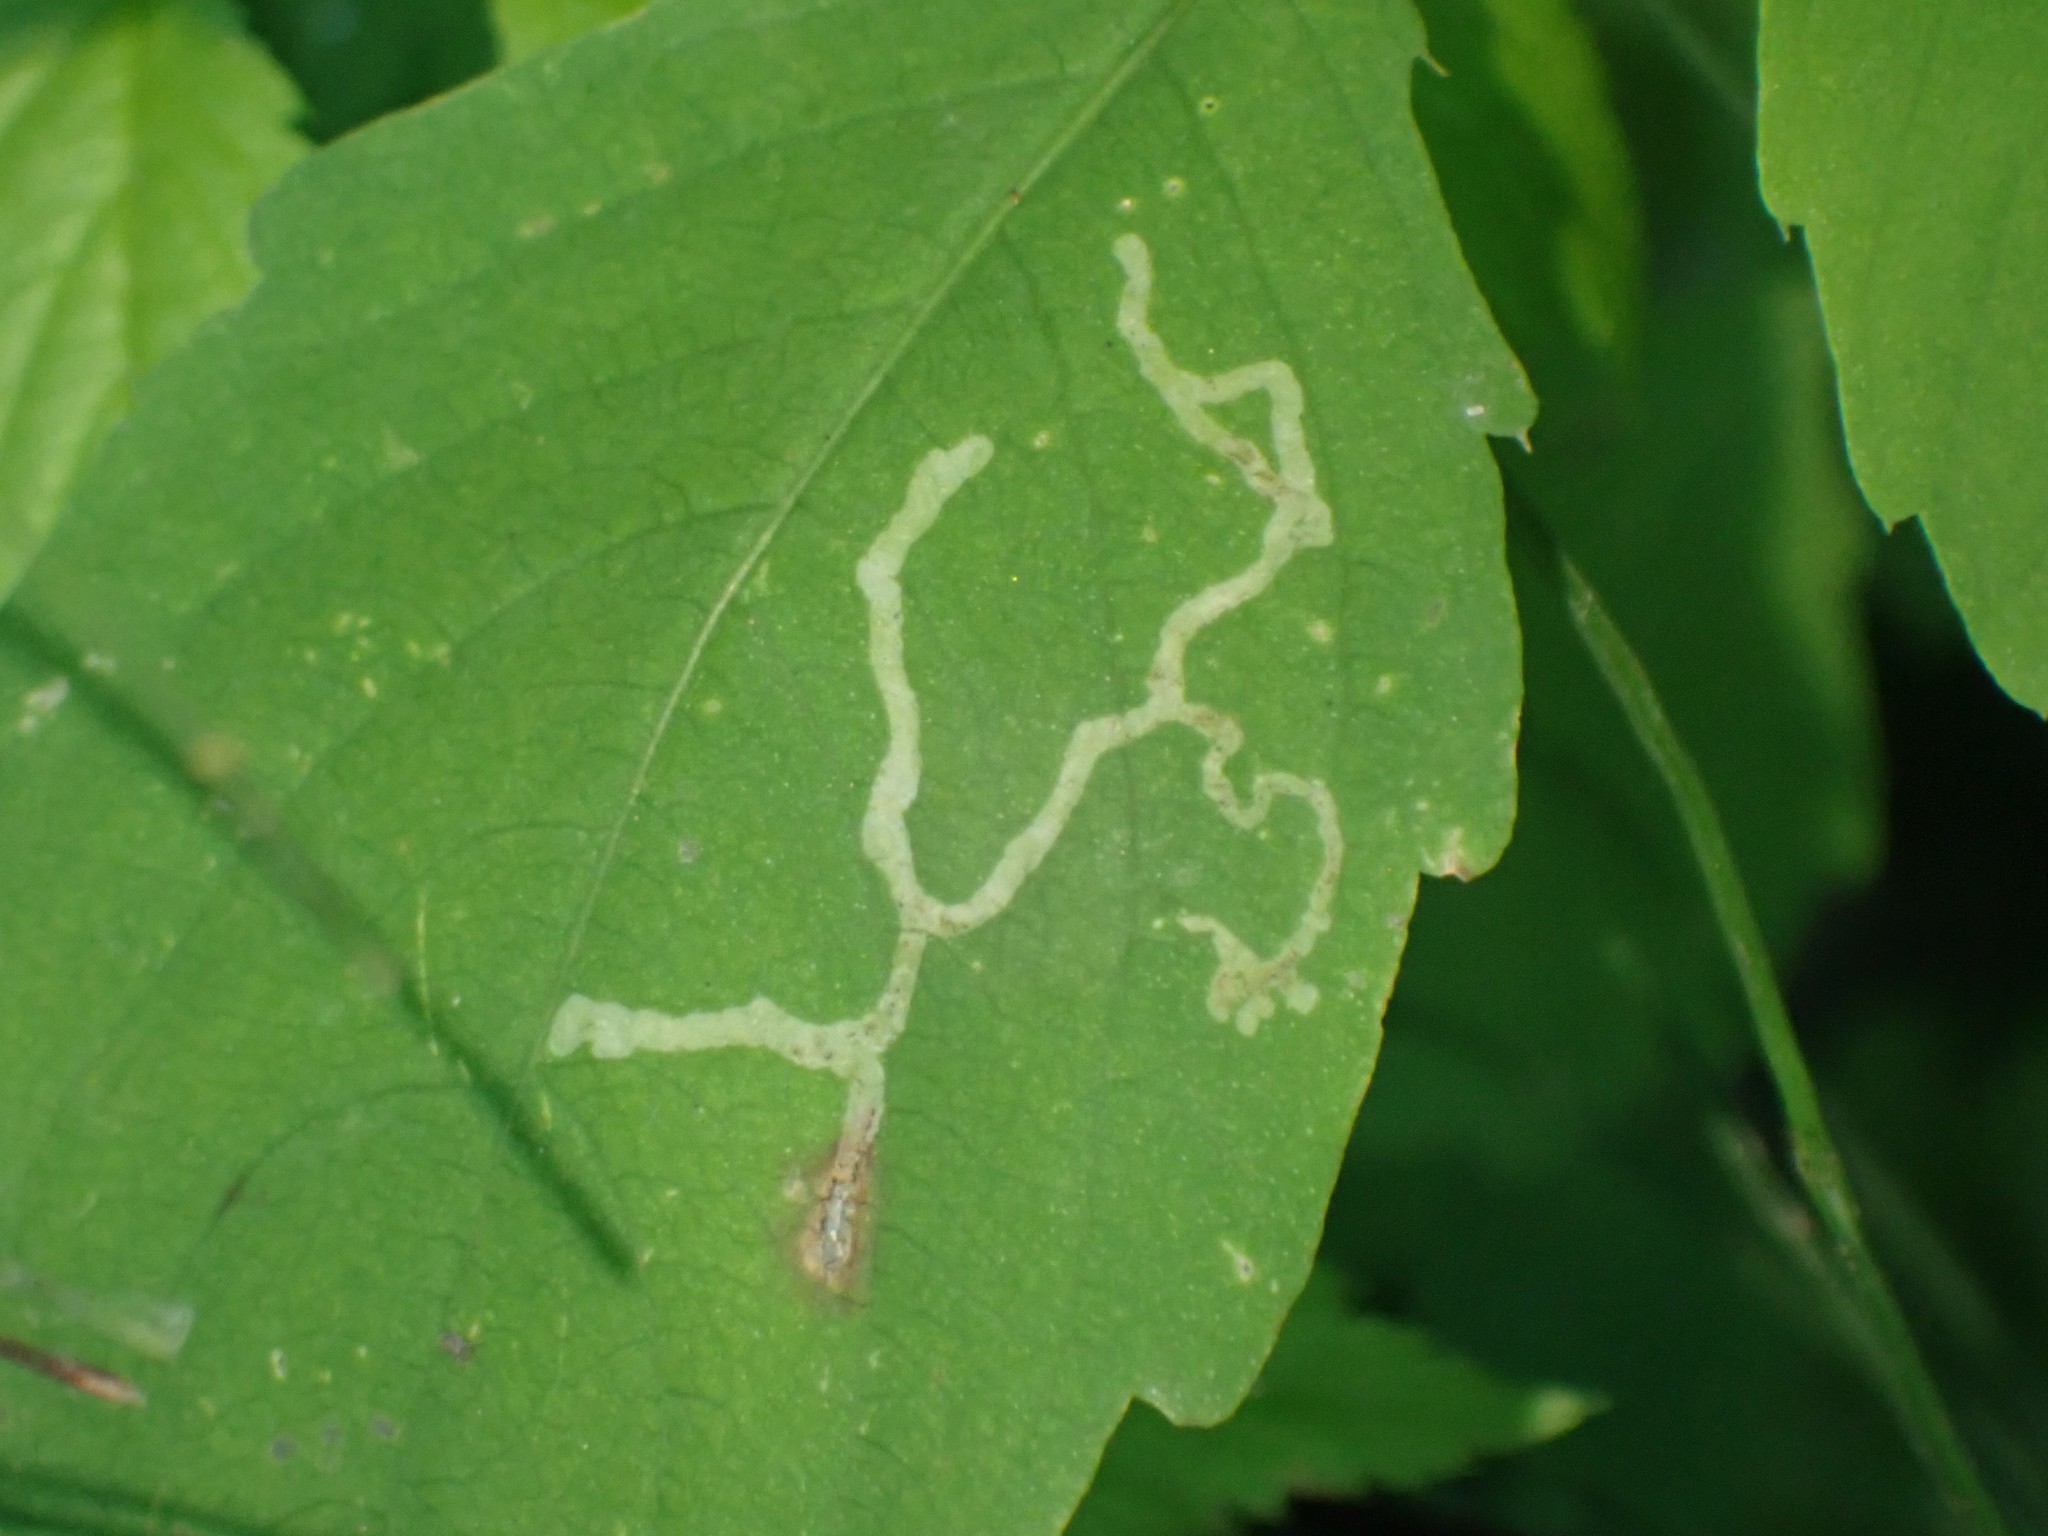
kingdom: Animalia
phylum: Arthropoda
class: Insecta
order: Diptera
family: Agromyzidae
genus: Phytoliriomyza
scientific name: Phytoliriomyza melampyga
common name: Jewelweed leaf-miner fly
